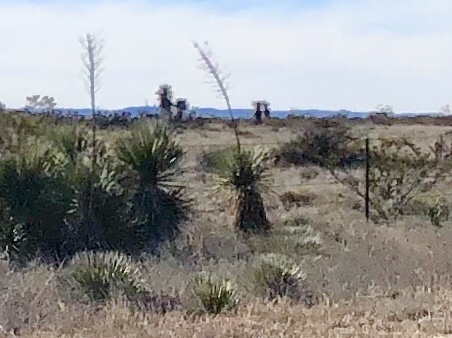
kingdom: Plantae
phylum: Tracheophyta
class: Liliopsida
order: Asparagales
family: Asparagaceae
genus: Yucca
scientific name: Yucca elata
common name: Palmella
